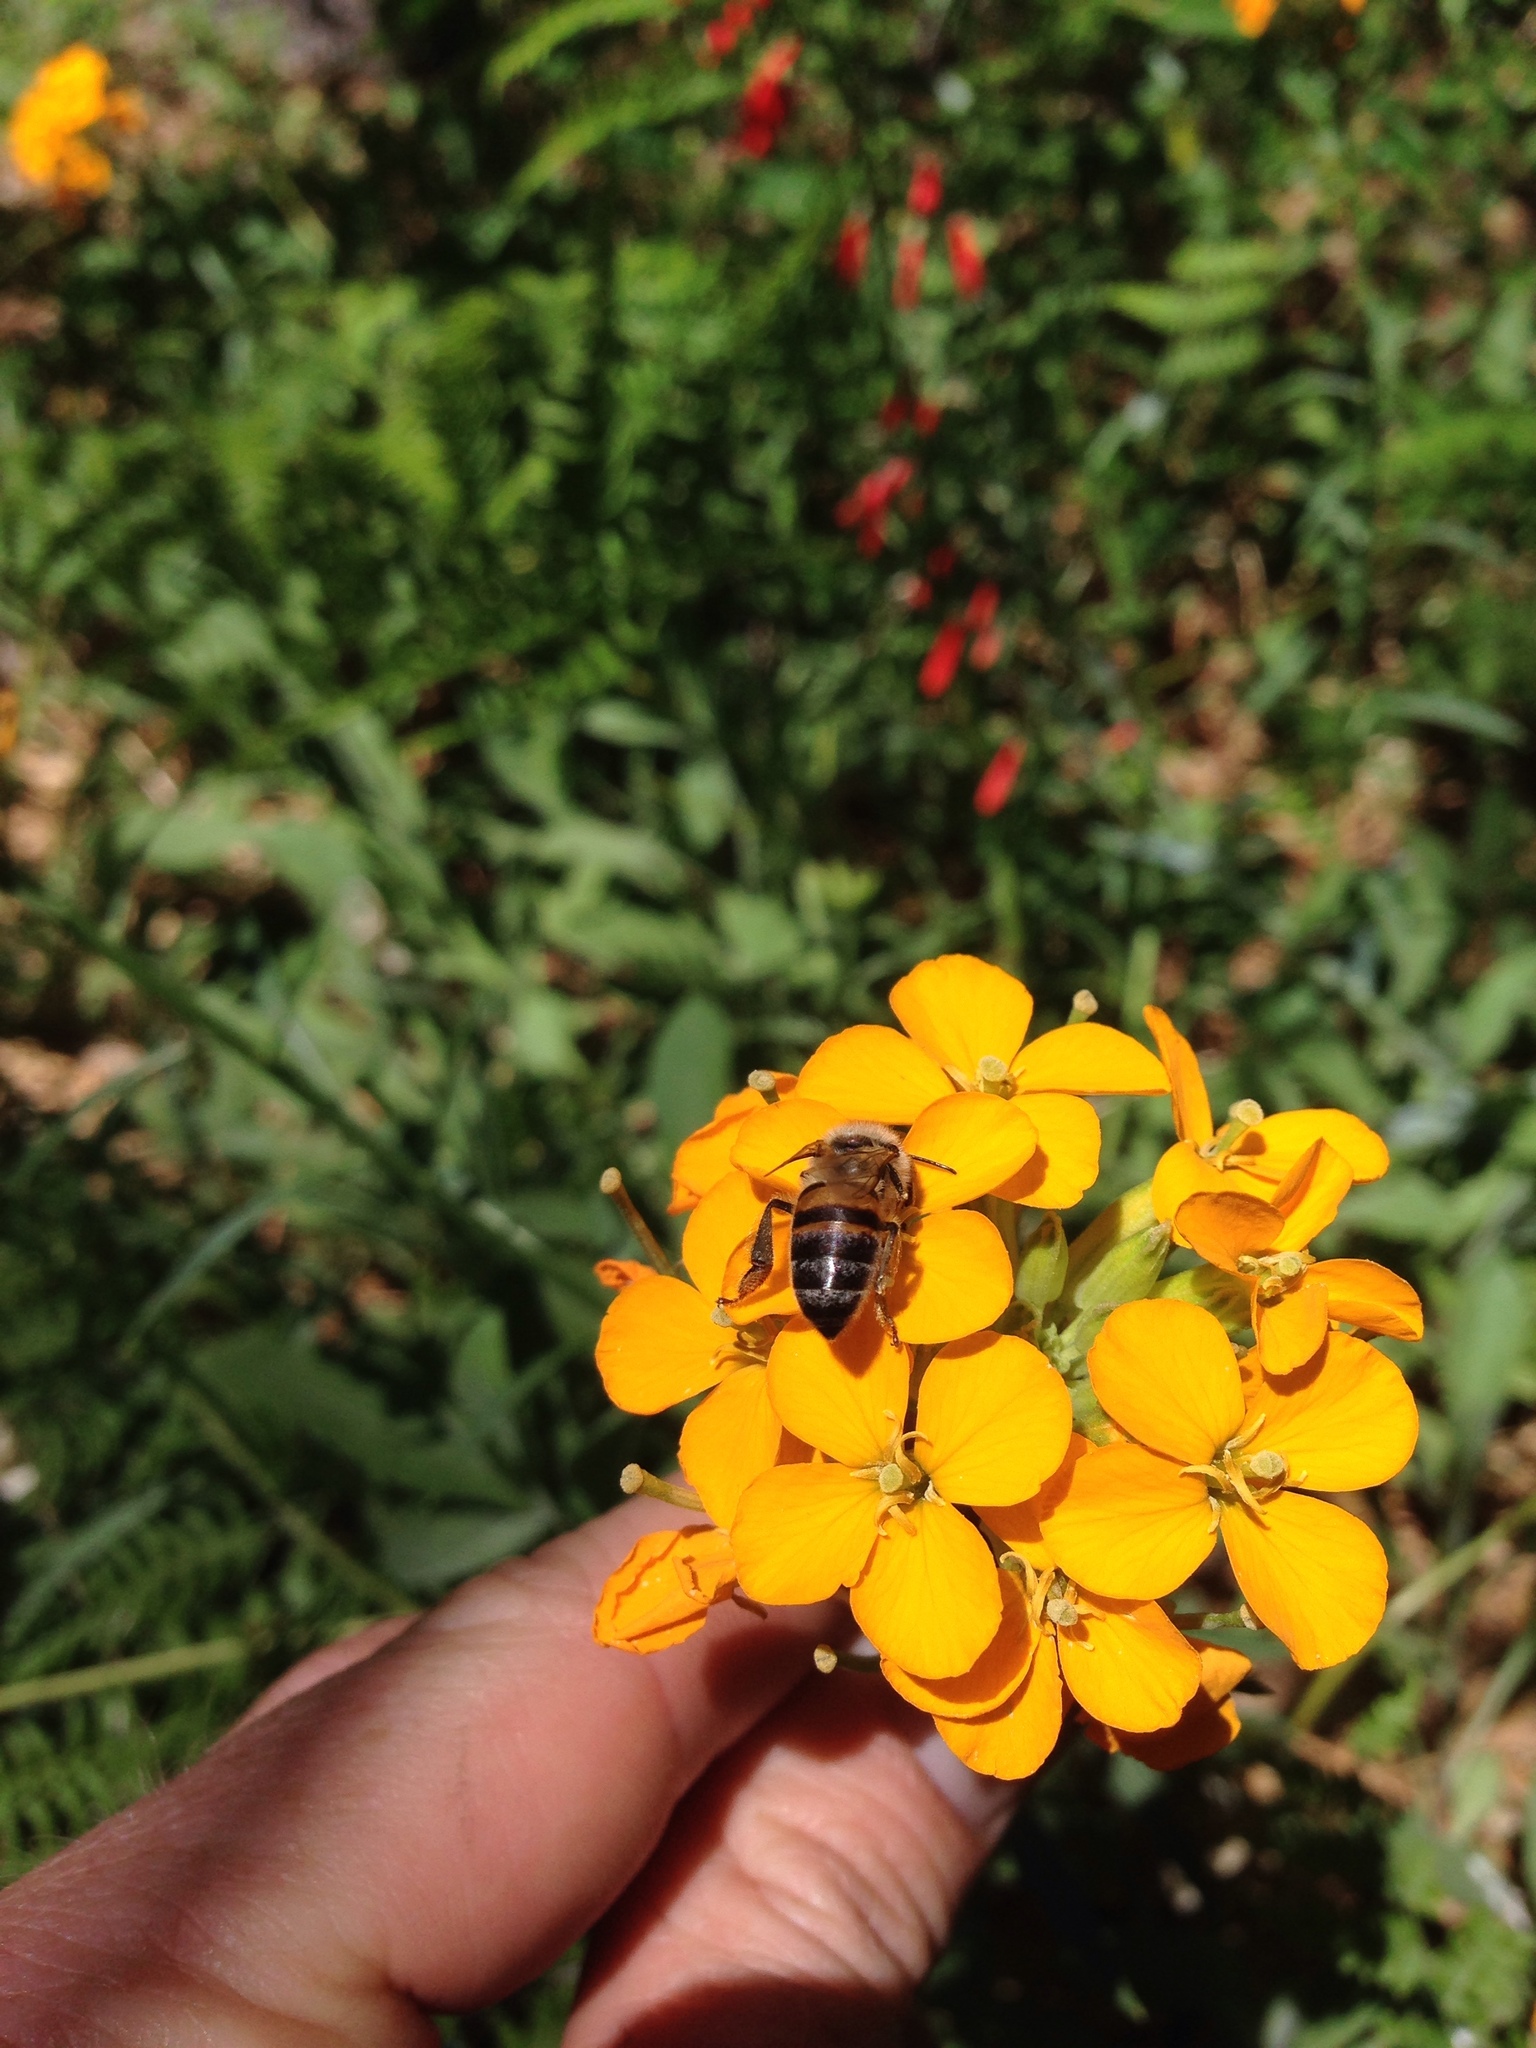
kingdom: Animalia
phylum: Arthropoda
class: Insecta
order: Hymenoptera
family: Apidae
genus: Apis
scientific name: Apis mellifera
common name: Honey bee
